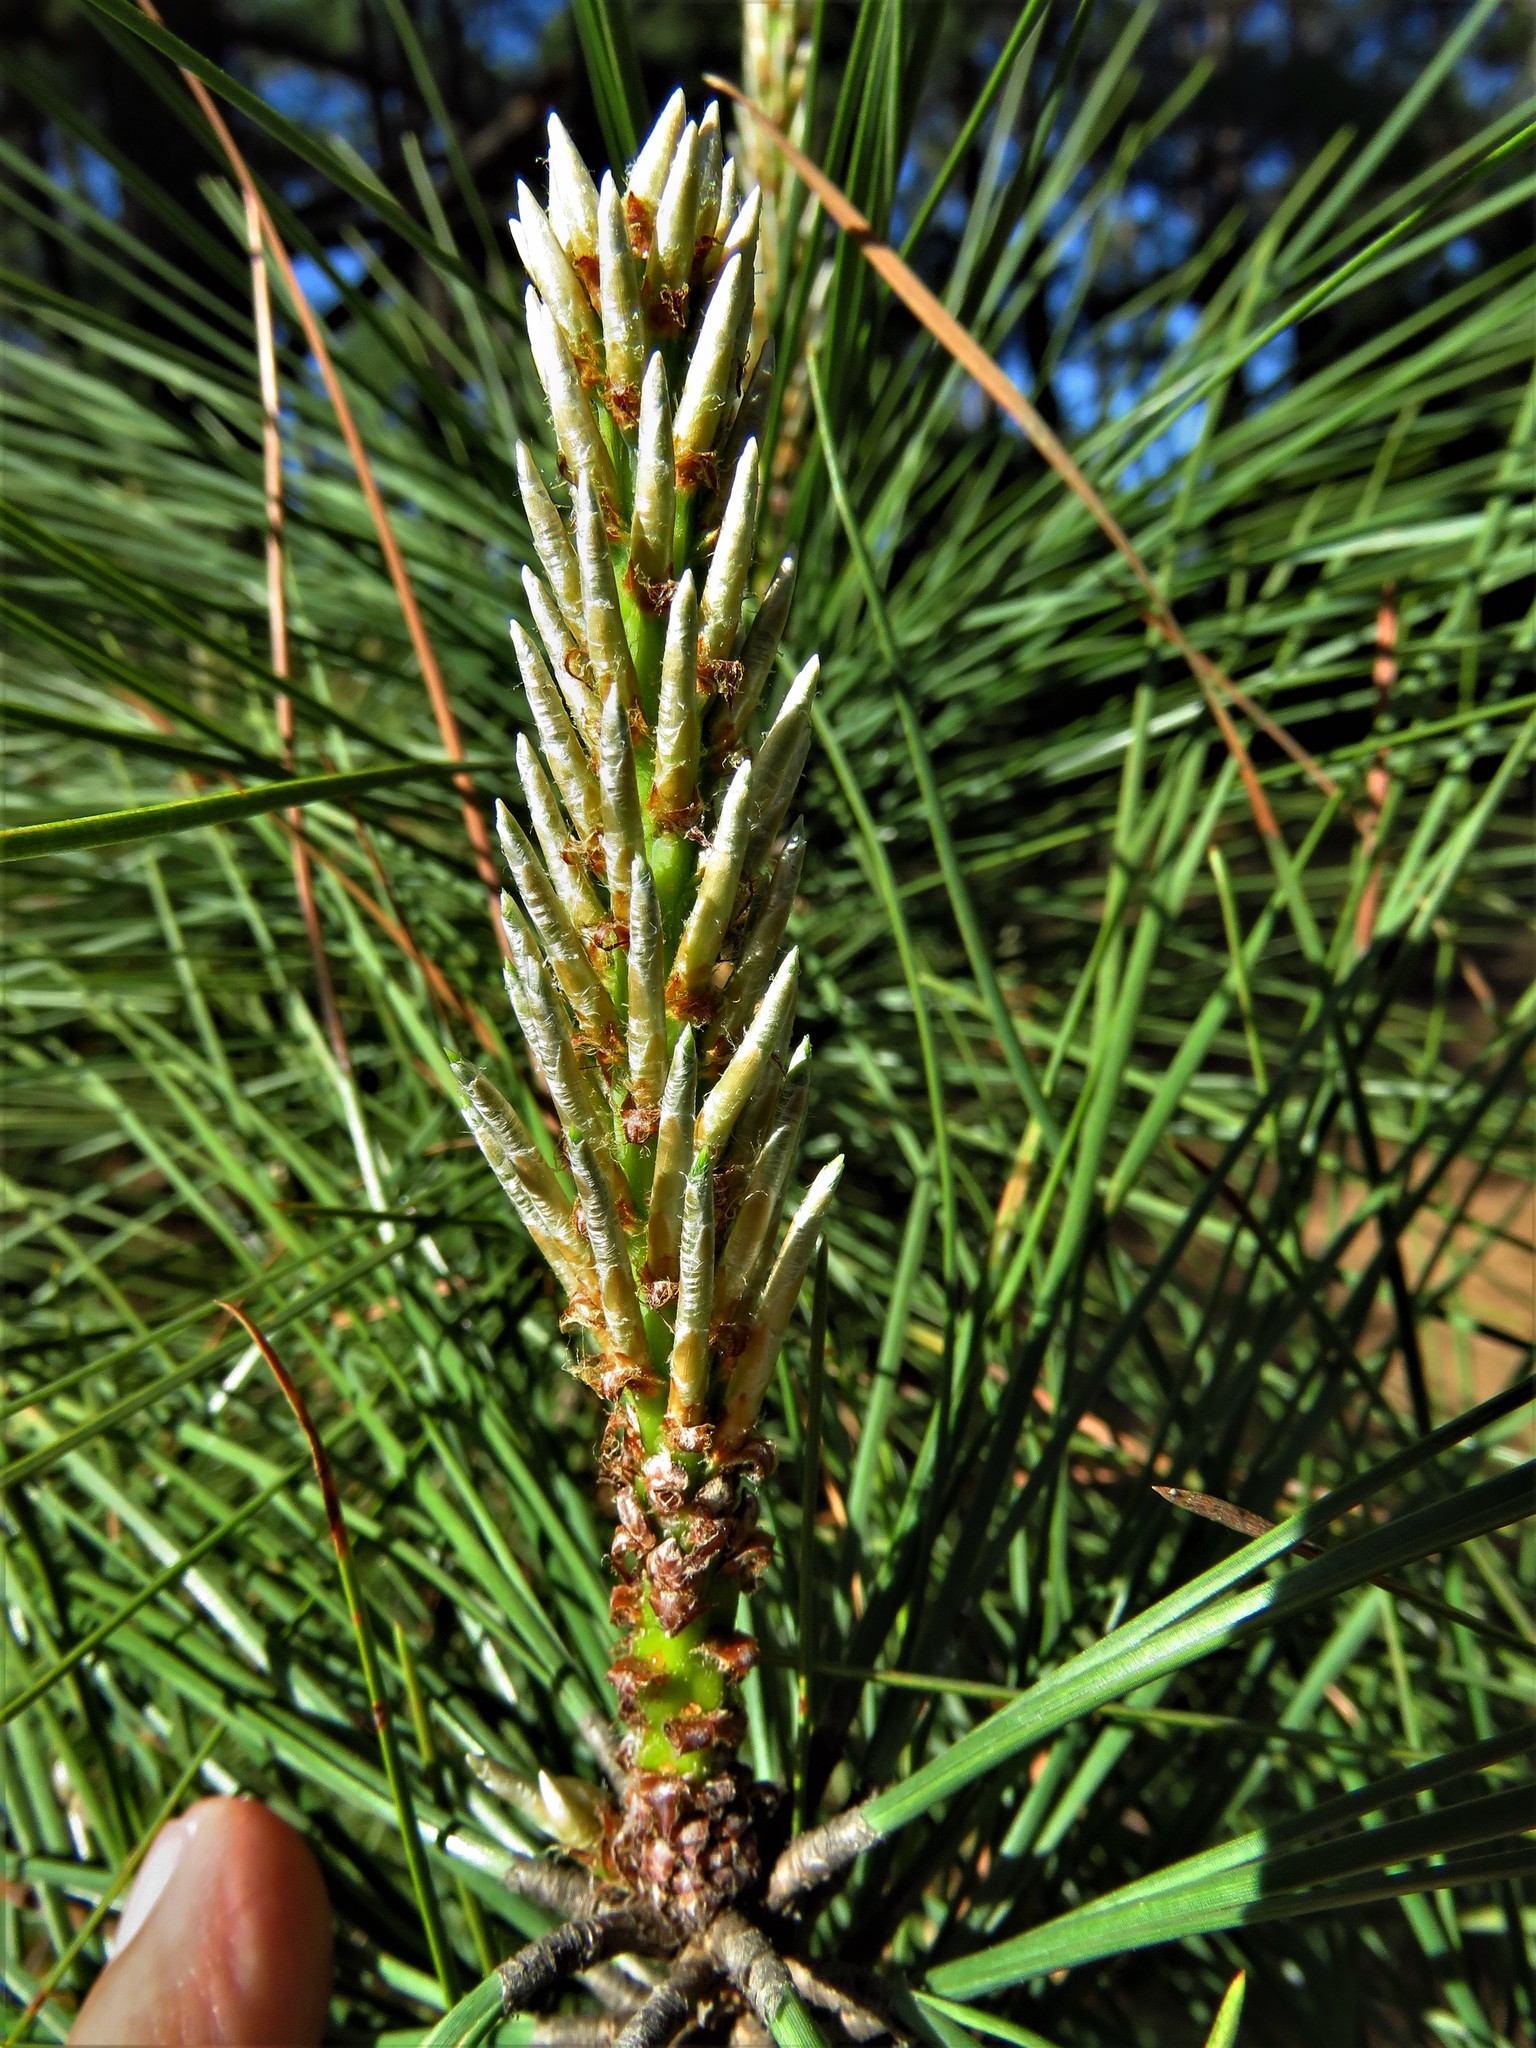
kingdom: Plantae
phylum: Tracheophyta
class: Pinopsida
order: Pinales
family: Pinaceae
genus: Pinus
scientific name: Pinus taeda
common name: Loblolly pine
